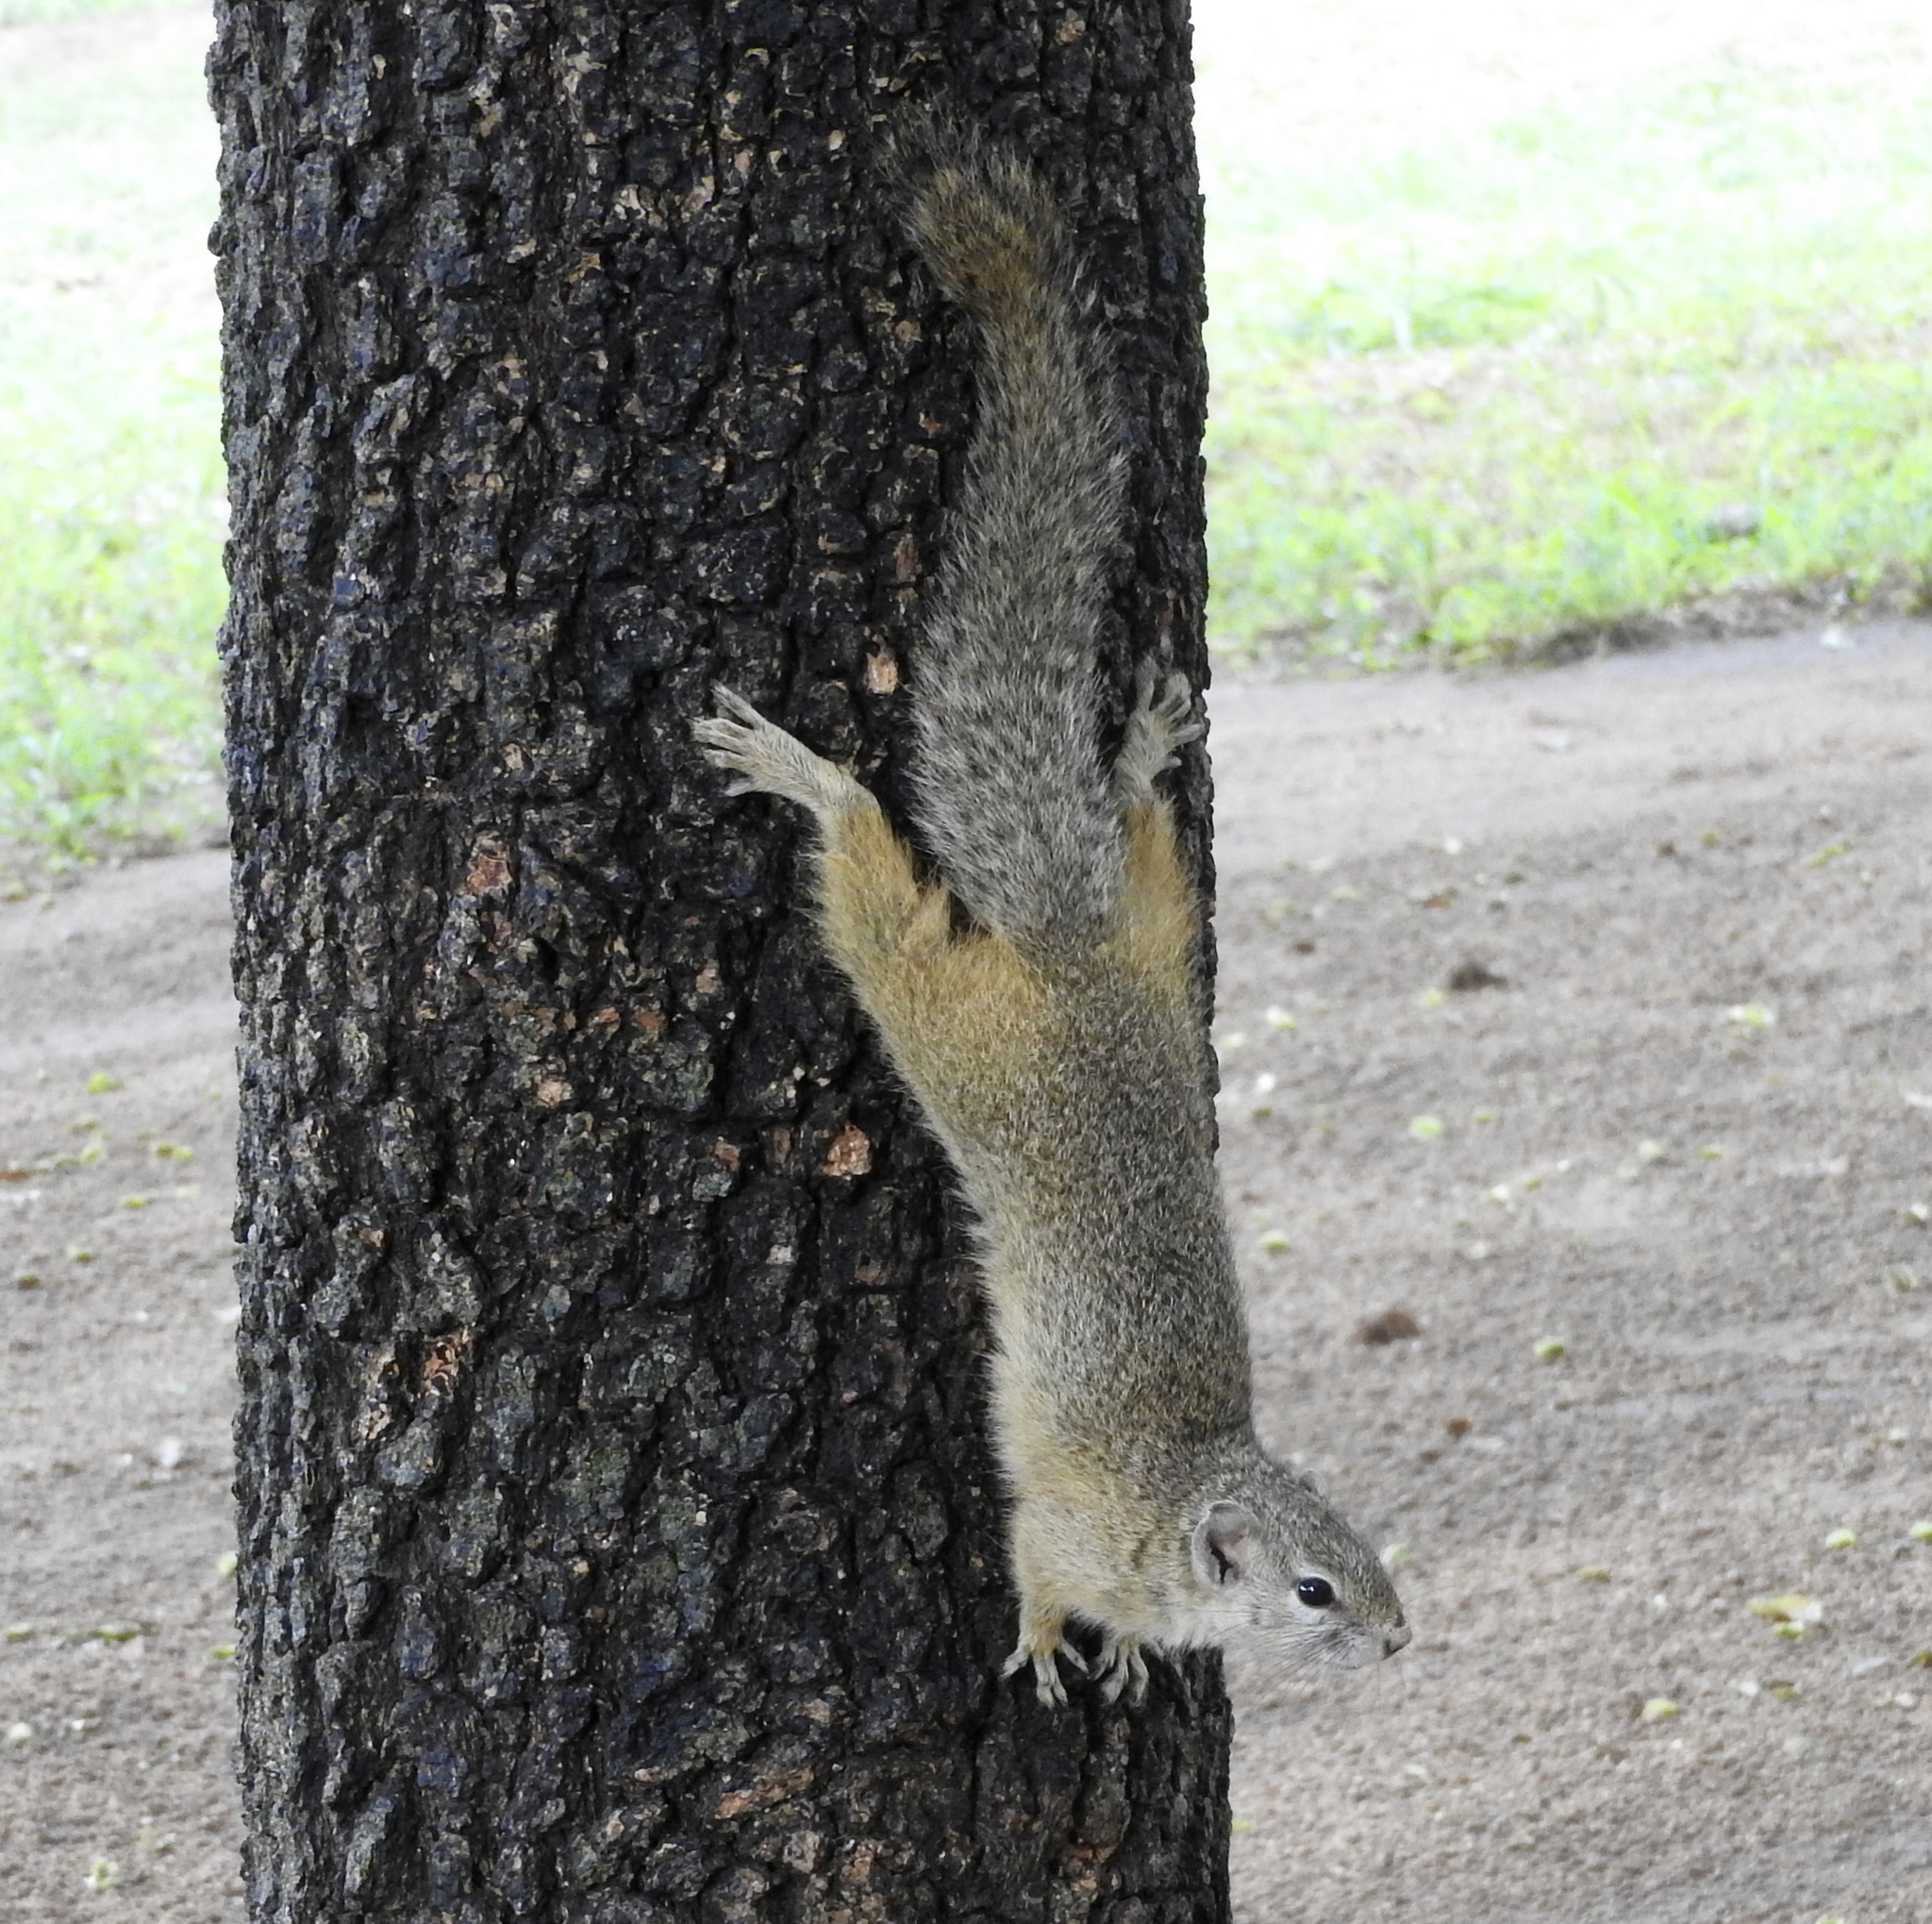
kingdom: Animalia
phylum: Chordata
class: Mammalia
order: Rodentia
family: Sciuridae
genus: Paraxerus
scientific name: Paraxerus cepapi
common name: Smith's bush squirrel
